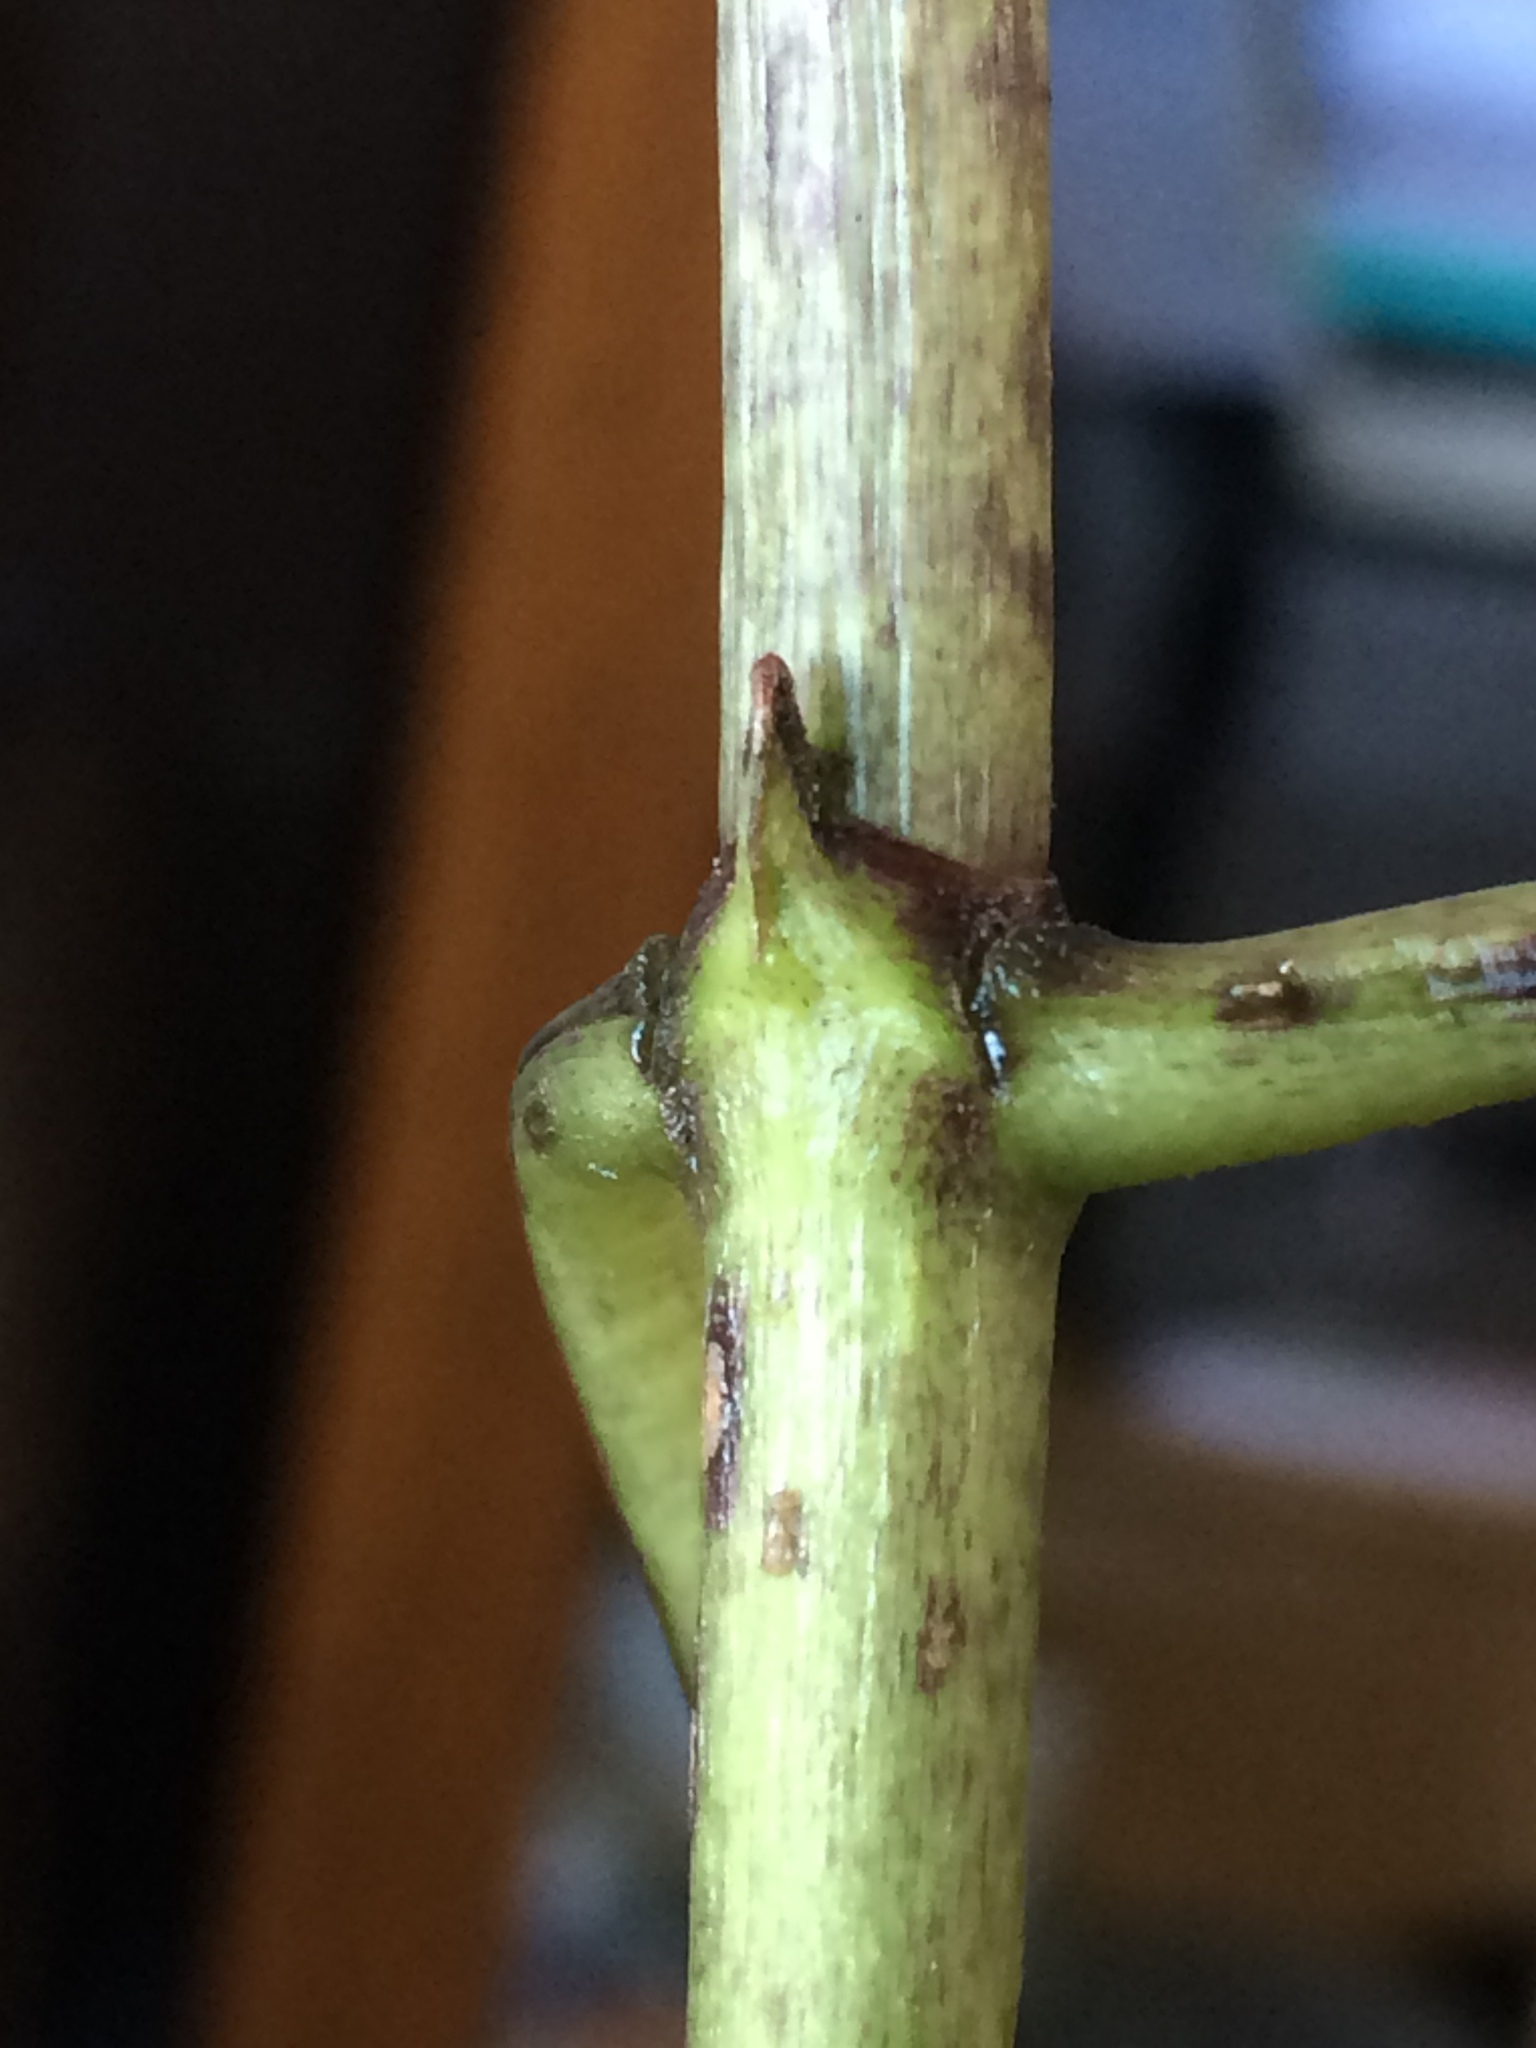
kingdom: Plantae
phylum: Tracheophyta
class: Magnoliopsida
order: Gentianales
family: Rubiaceae
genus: Coprosma
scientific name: Coprosma autumnalis
